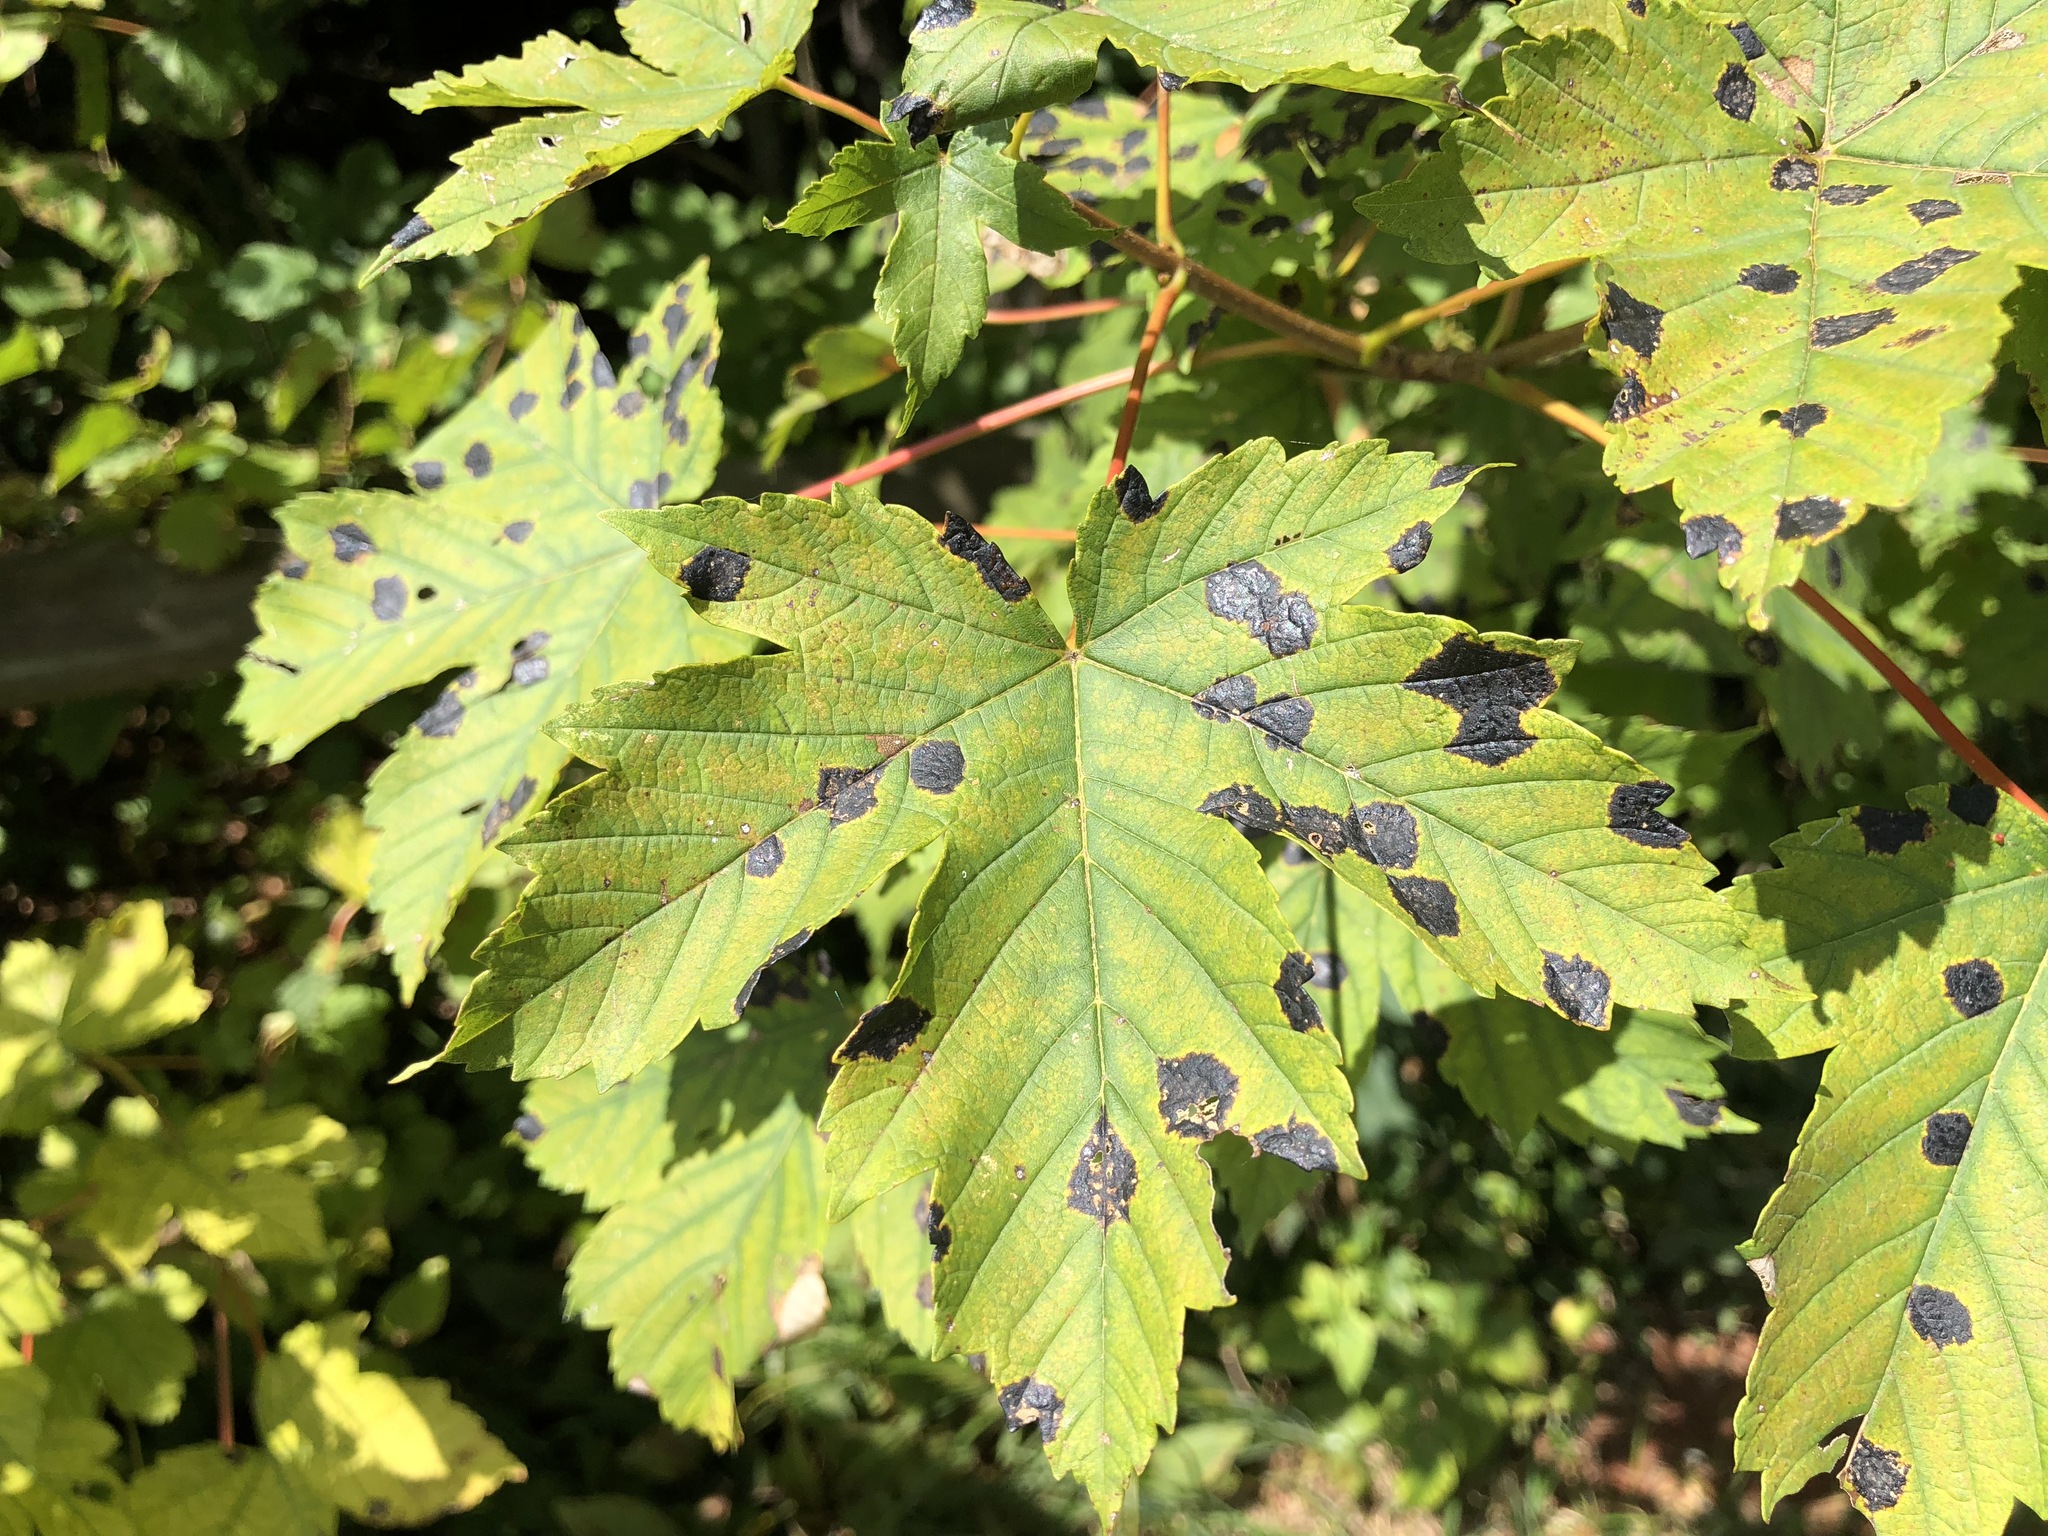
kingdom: Fungi
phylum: Ascomycota
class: Leotiomycetes
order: Rhytismatales
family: Rhytismataceae
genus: Rhytisma
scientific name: Rhytisma acerinum
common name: European tar spot
